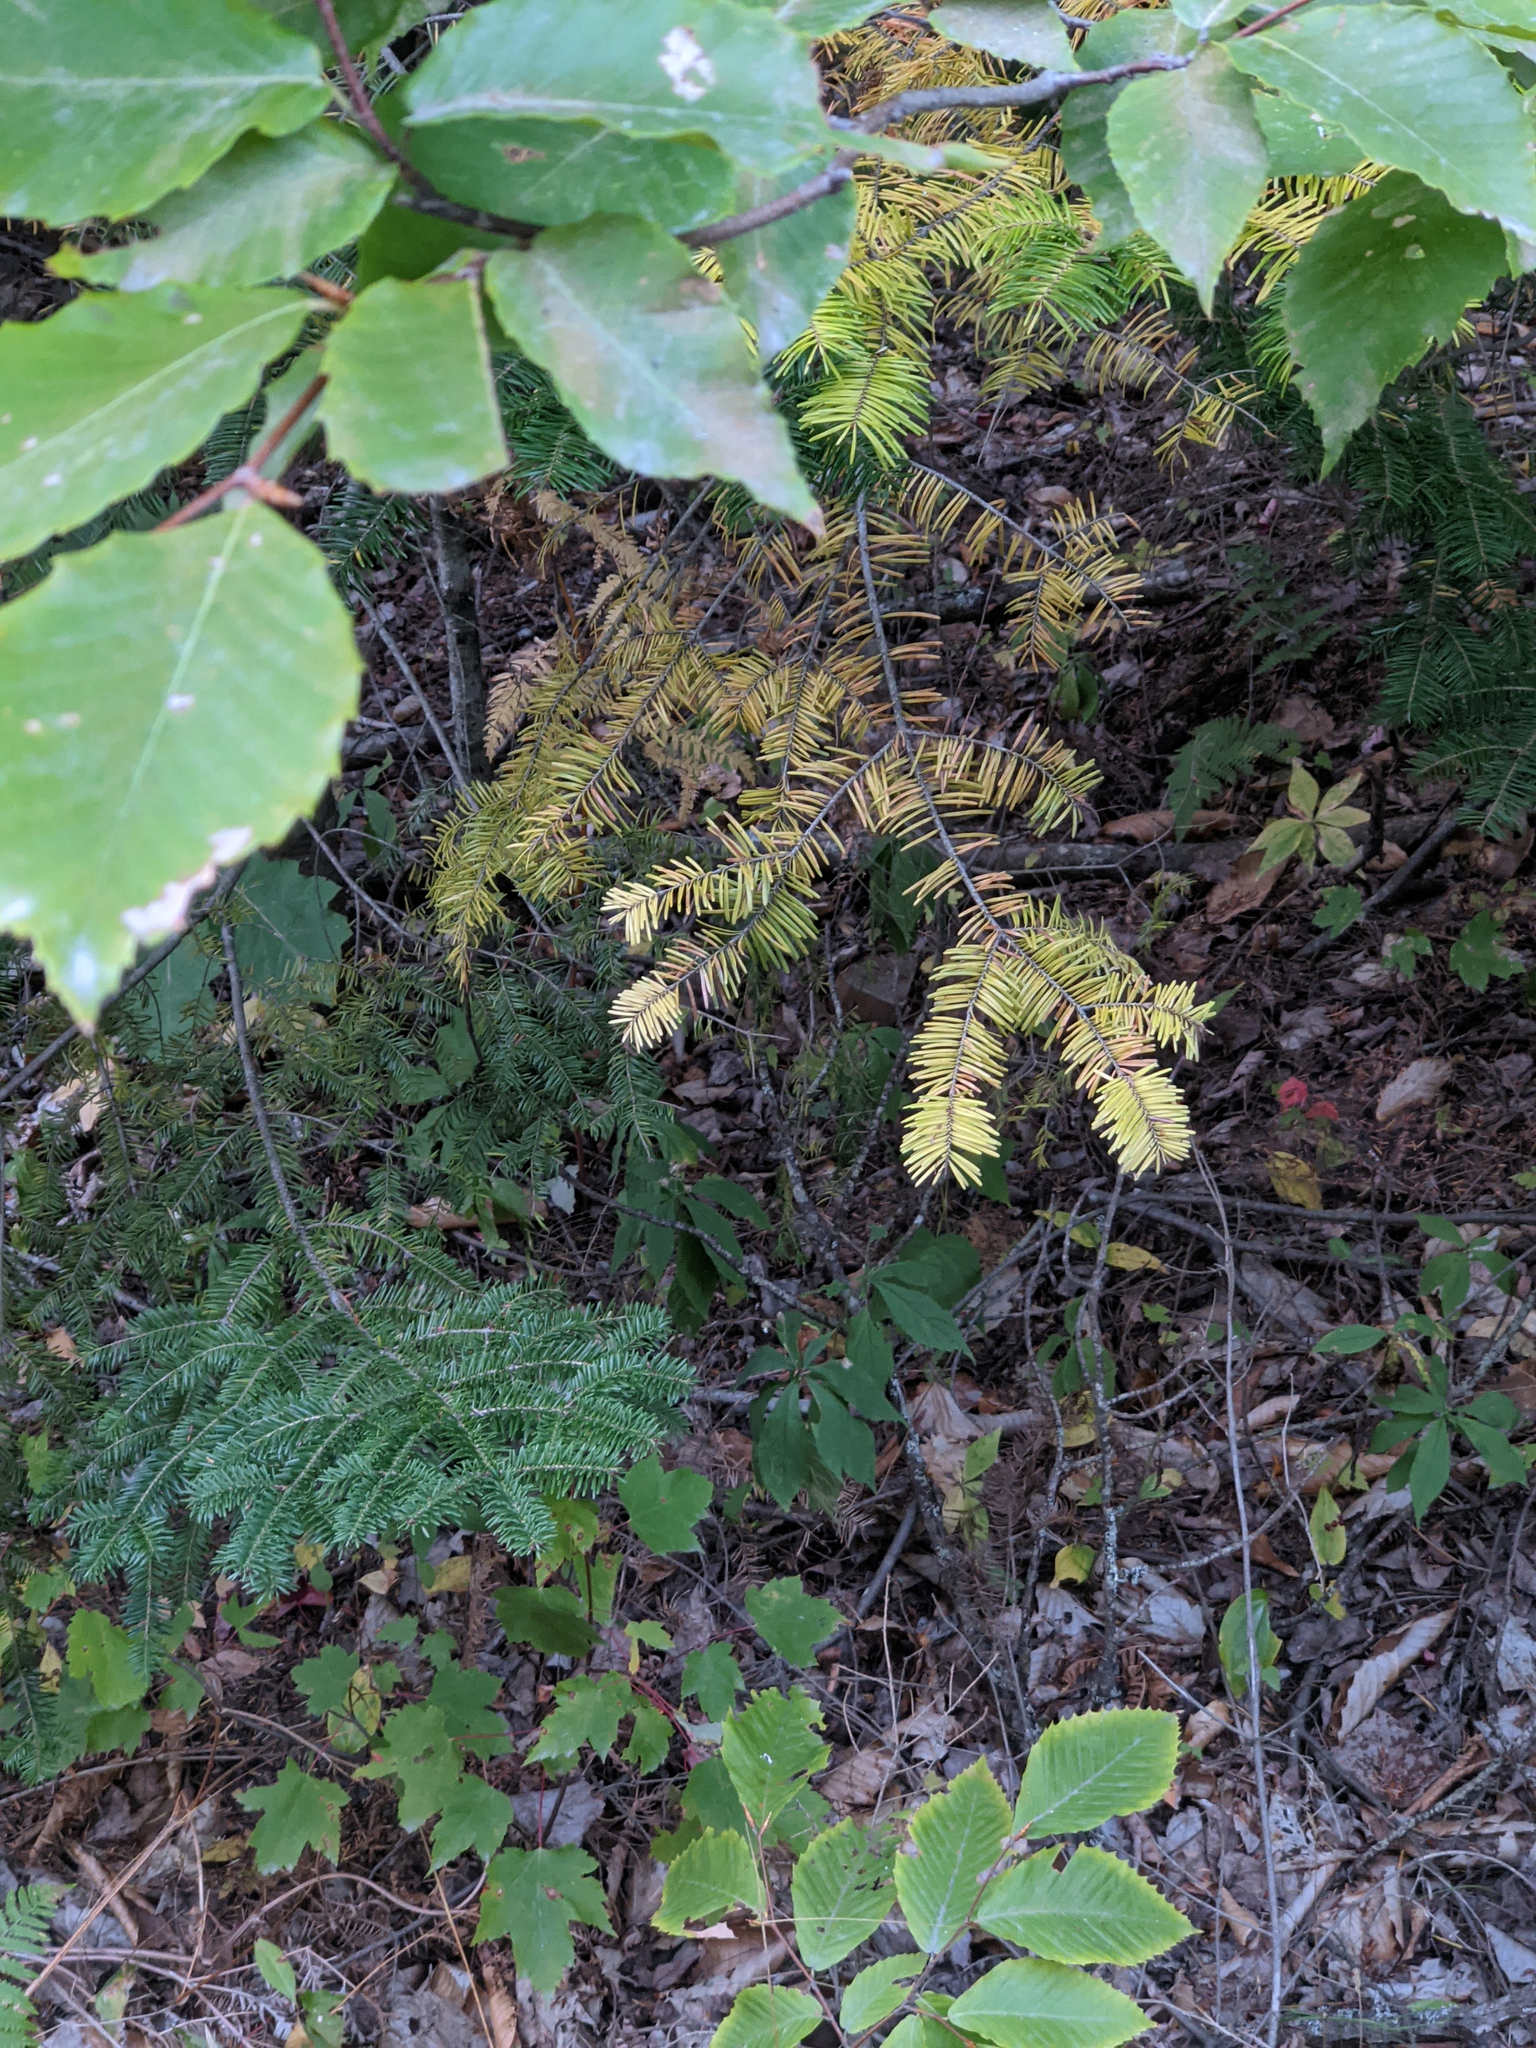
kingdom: Plantae
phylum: Tracheophyta
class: Pinopsida
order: Pinales
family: Pinaceae
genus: Abies
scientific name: Abies balsamea
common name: Balsam fir
